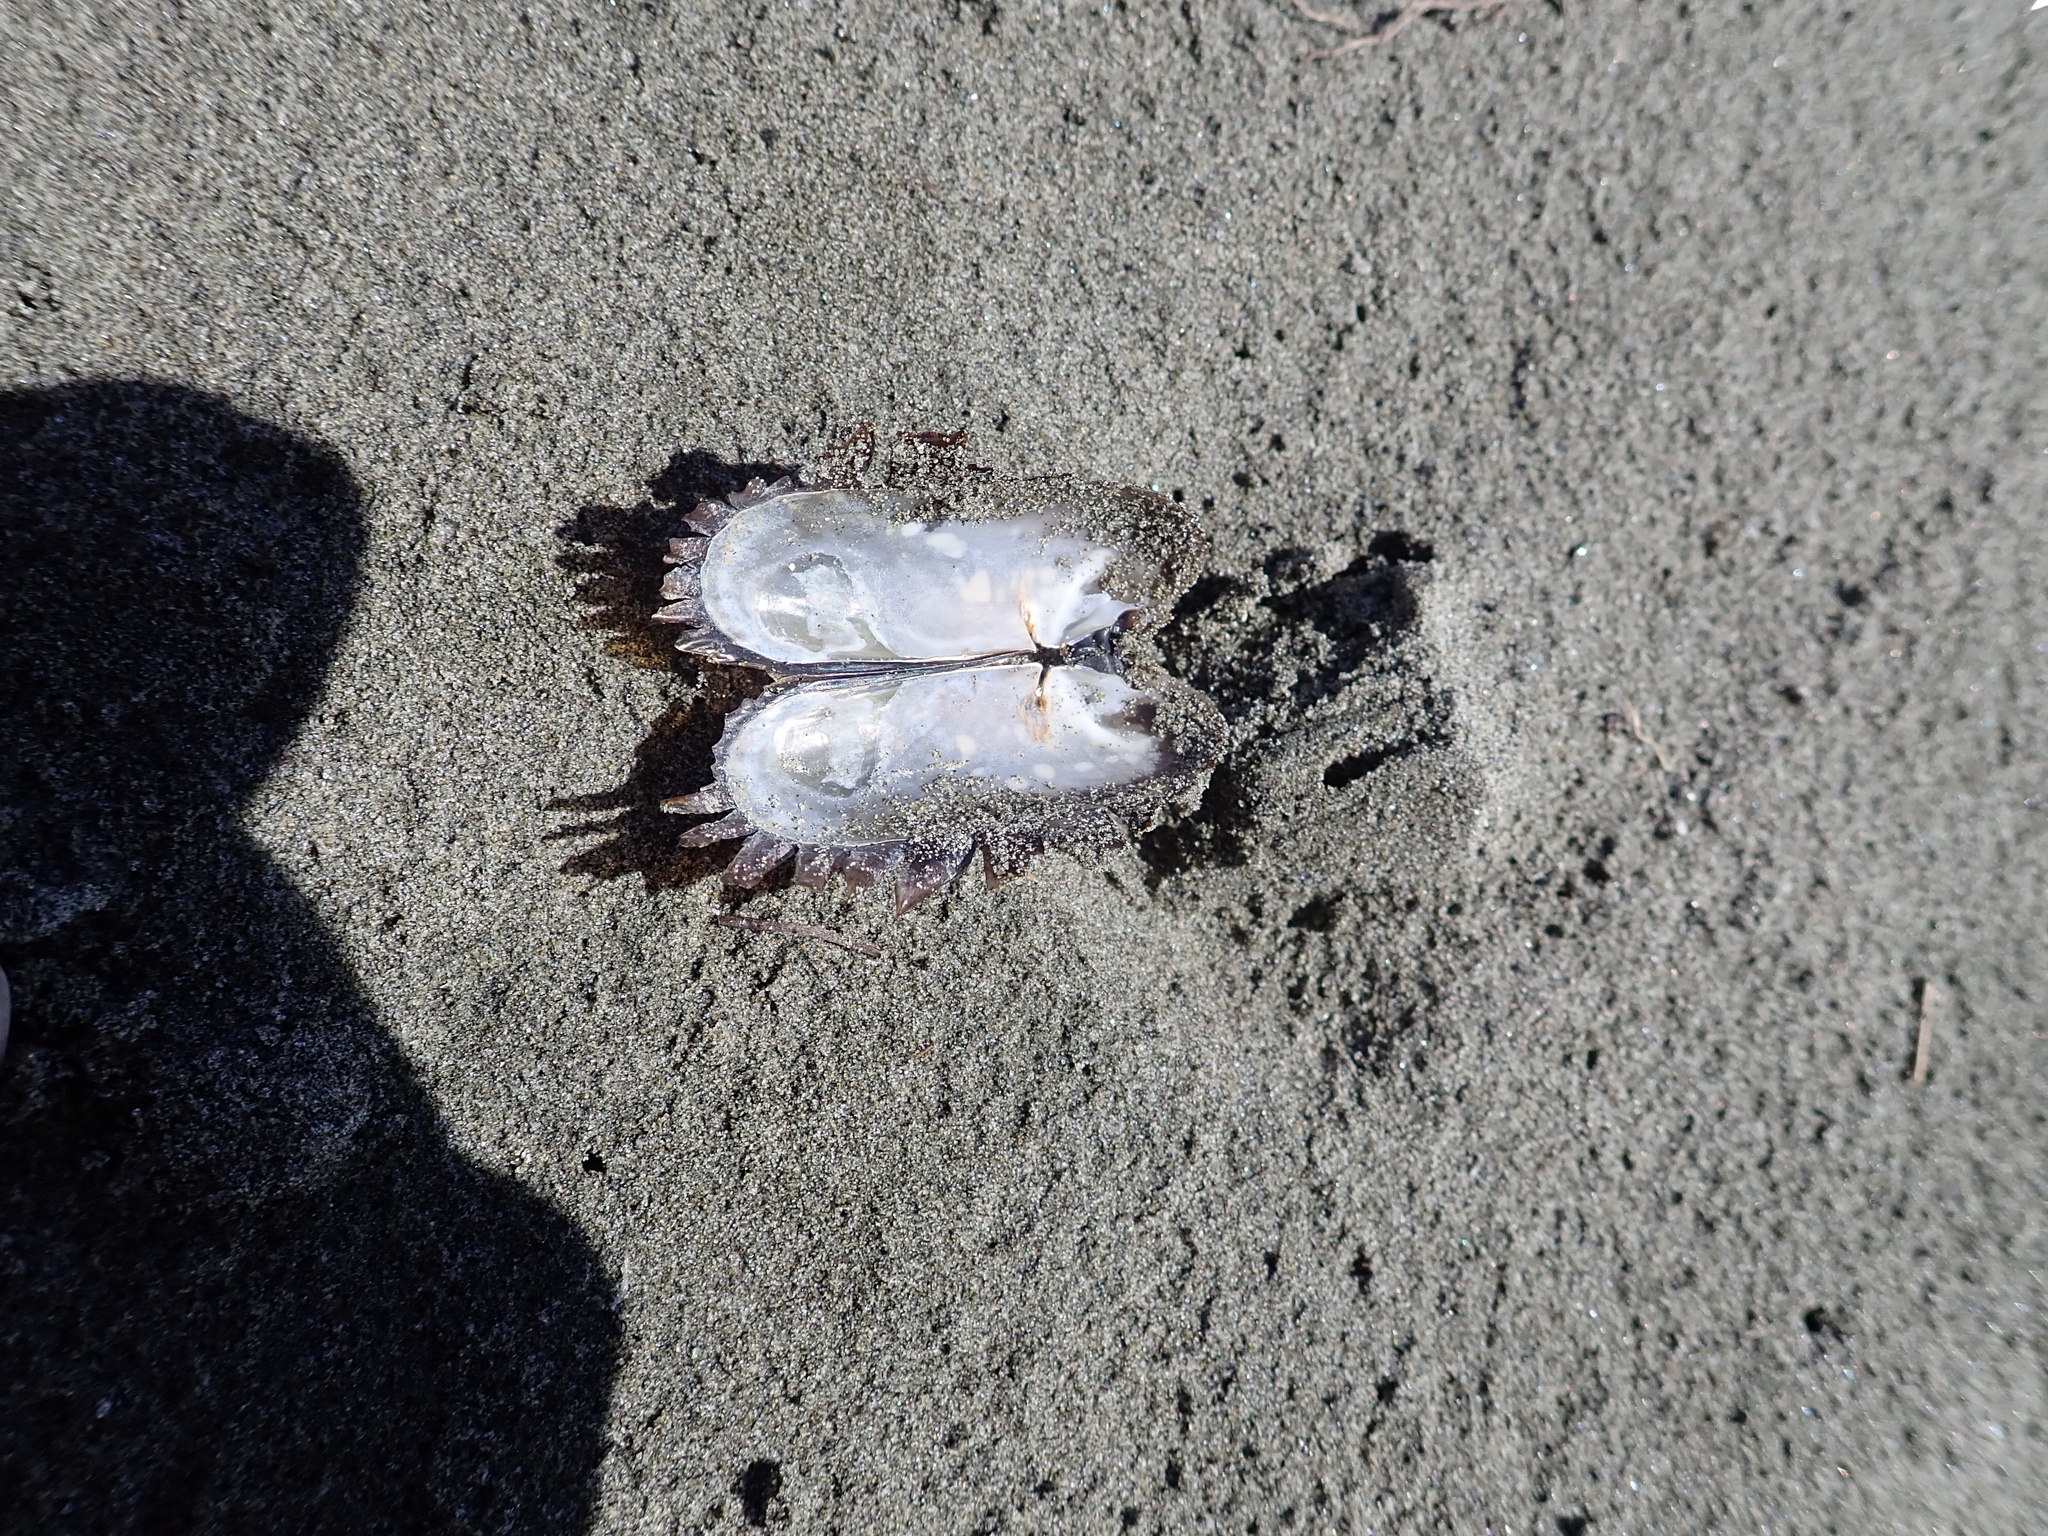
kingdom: Animalia
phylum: Mollusca
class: Bivalvia
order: Solemyida
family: Solemyidae
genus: Solemya
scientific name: Solemya parkinsonii
